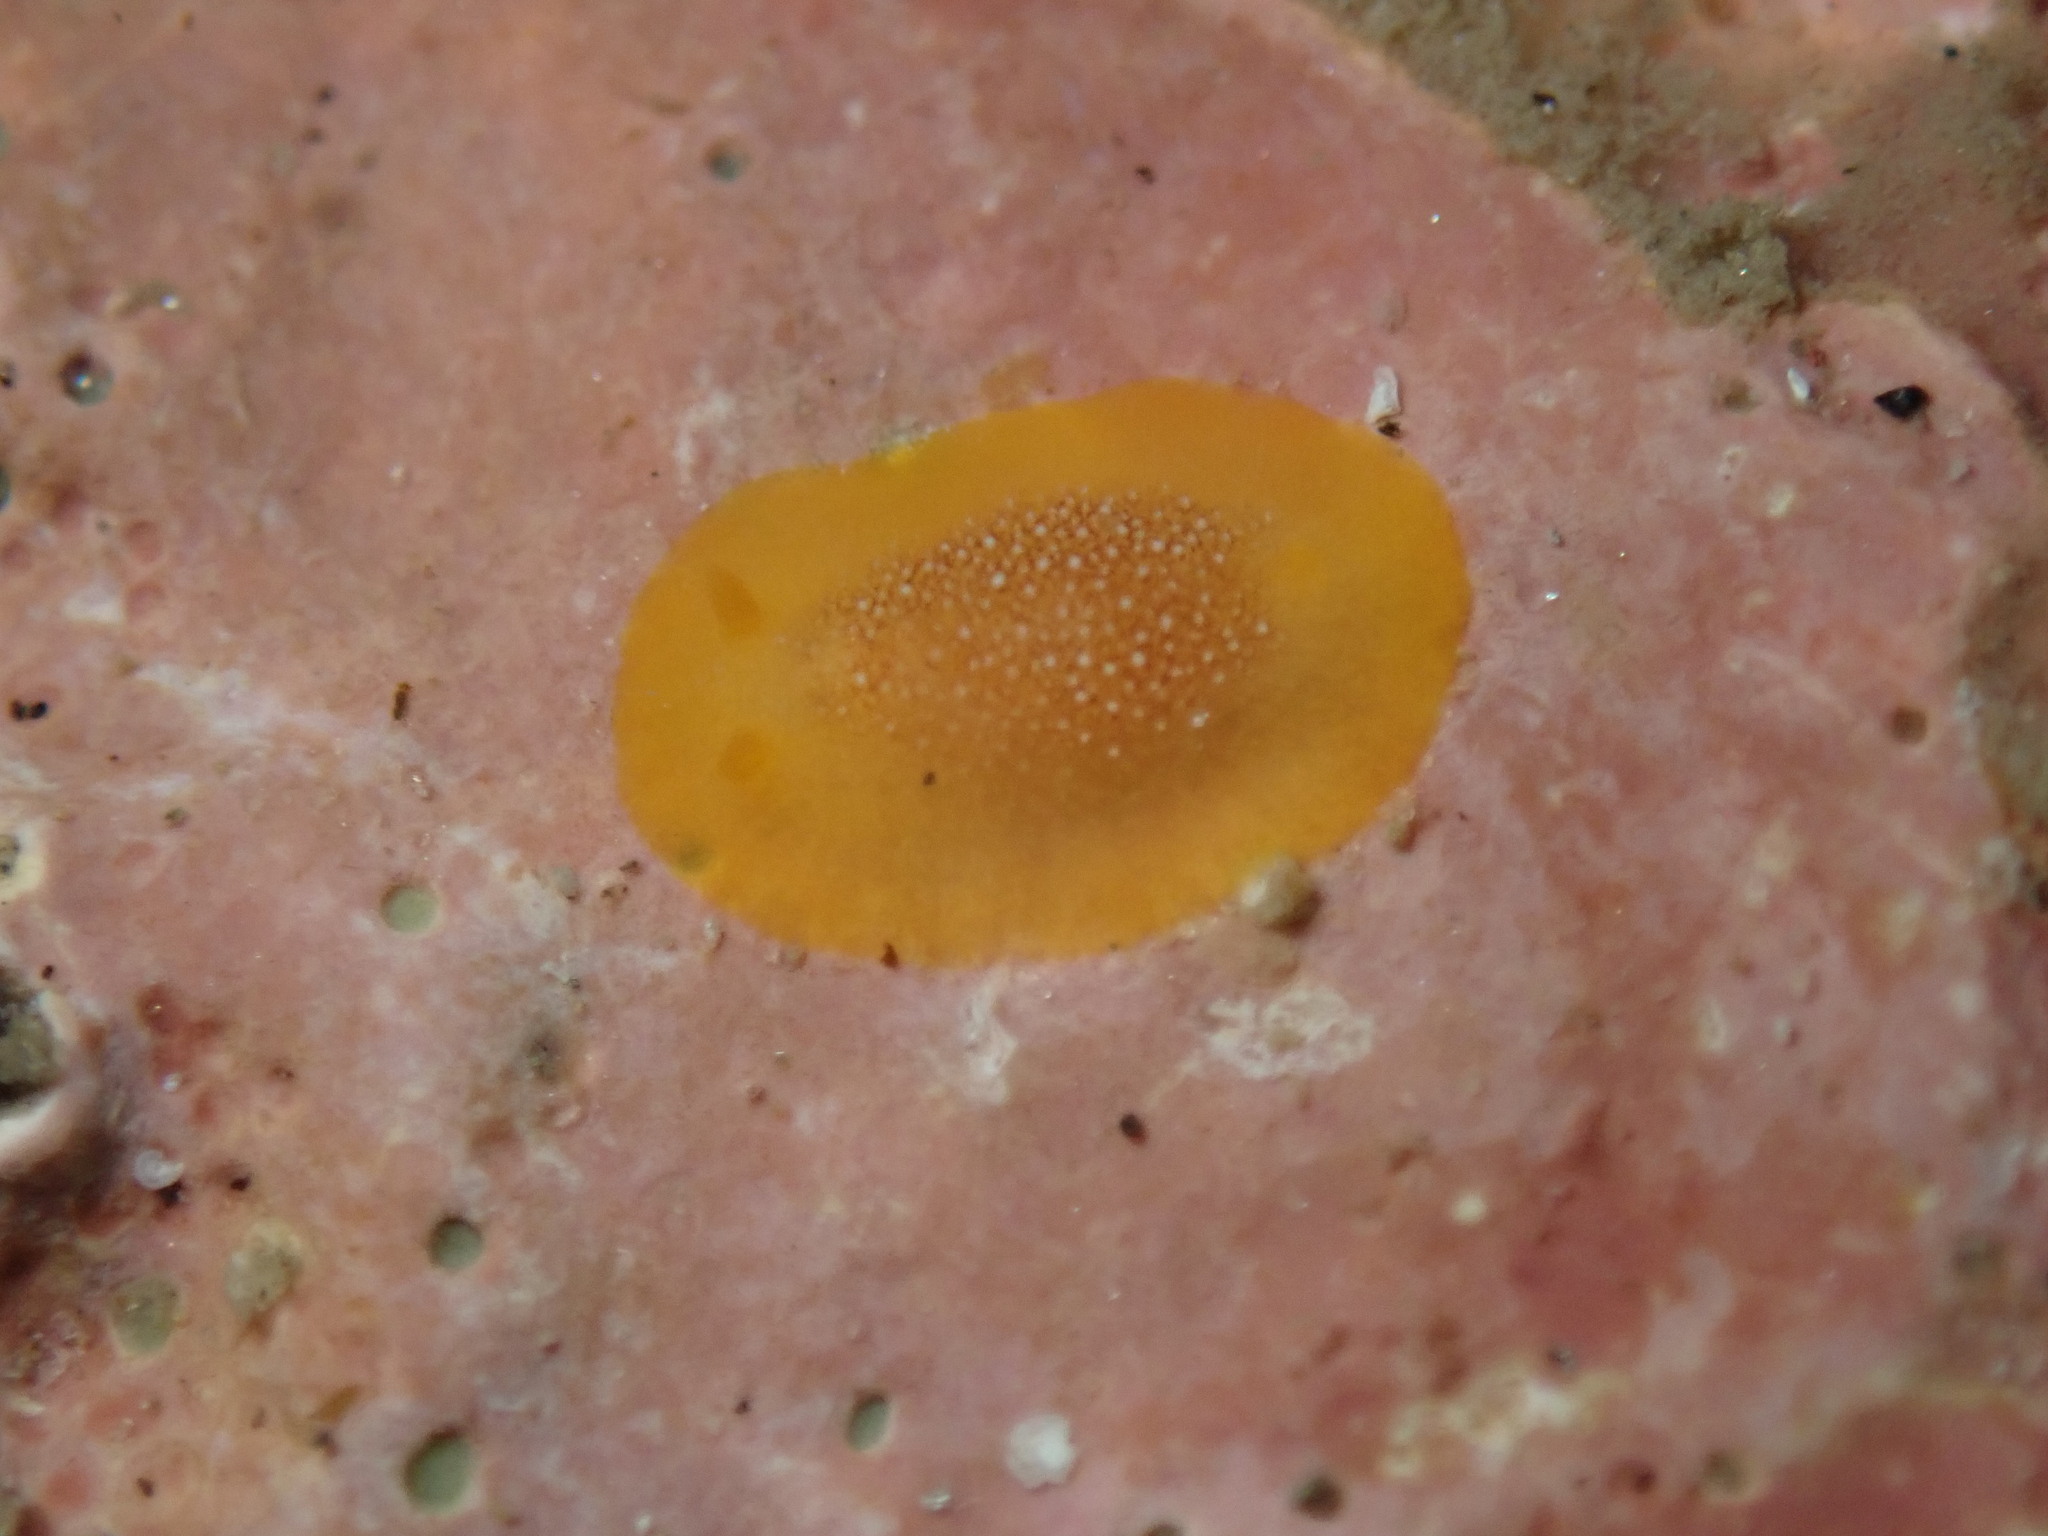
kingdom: Animalia
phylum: Mollusca
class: Gastropoda
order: Nudibranchia
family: Dendrodorididae
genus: Doriopsilla
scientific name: Doriopsilla gemela
